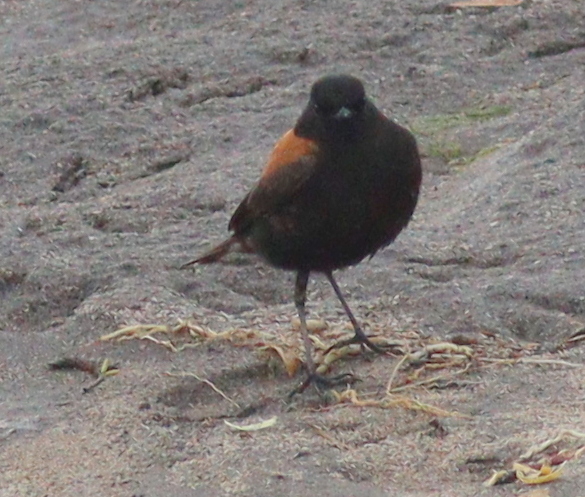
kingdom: Animalia
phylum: Chordata
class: Aves
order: Passeriformes
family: Tyrannidae
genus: Lessonia
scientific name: Lessonia rufa
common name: Austral negrito
